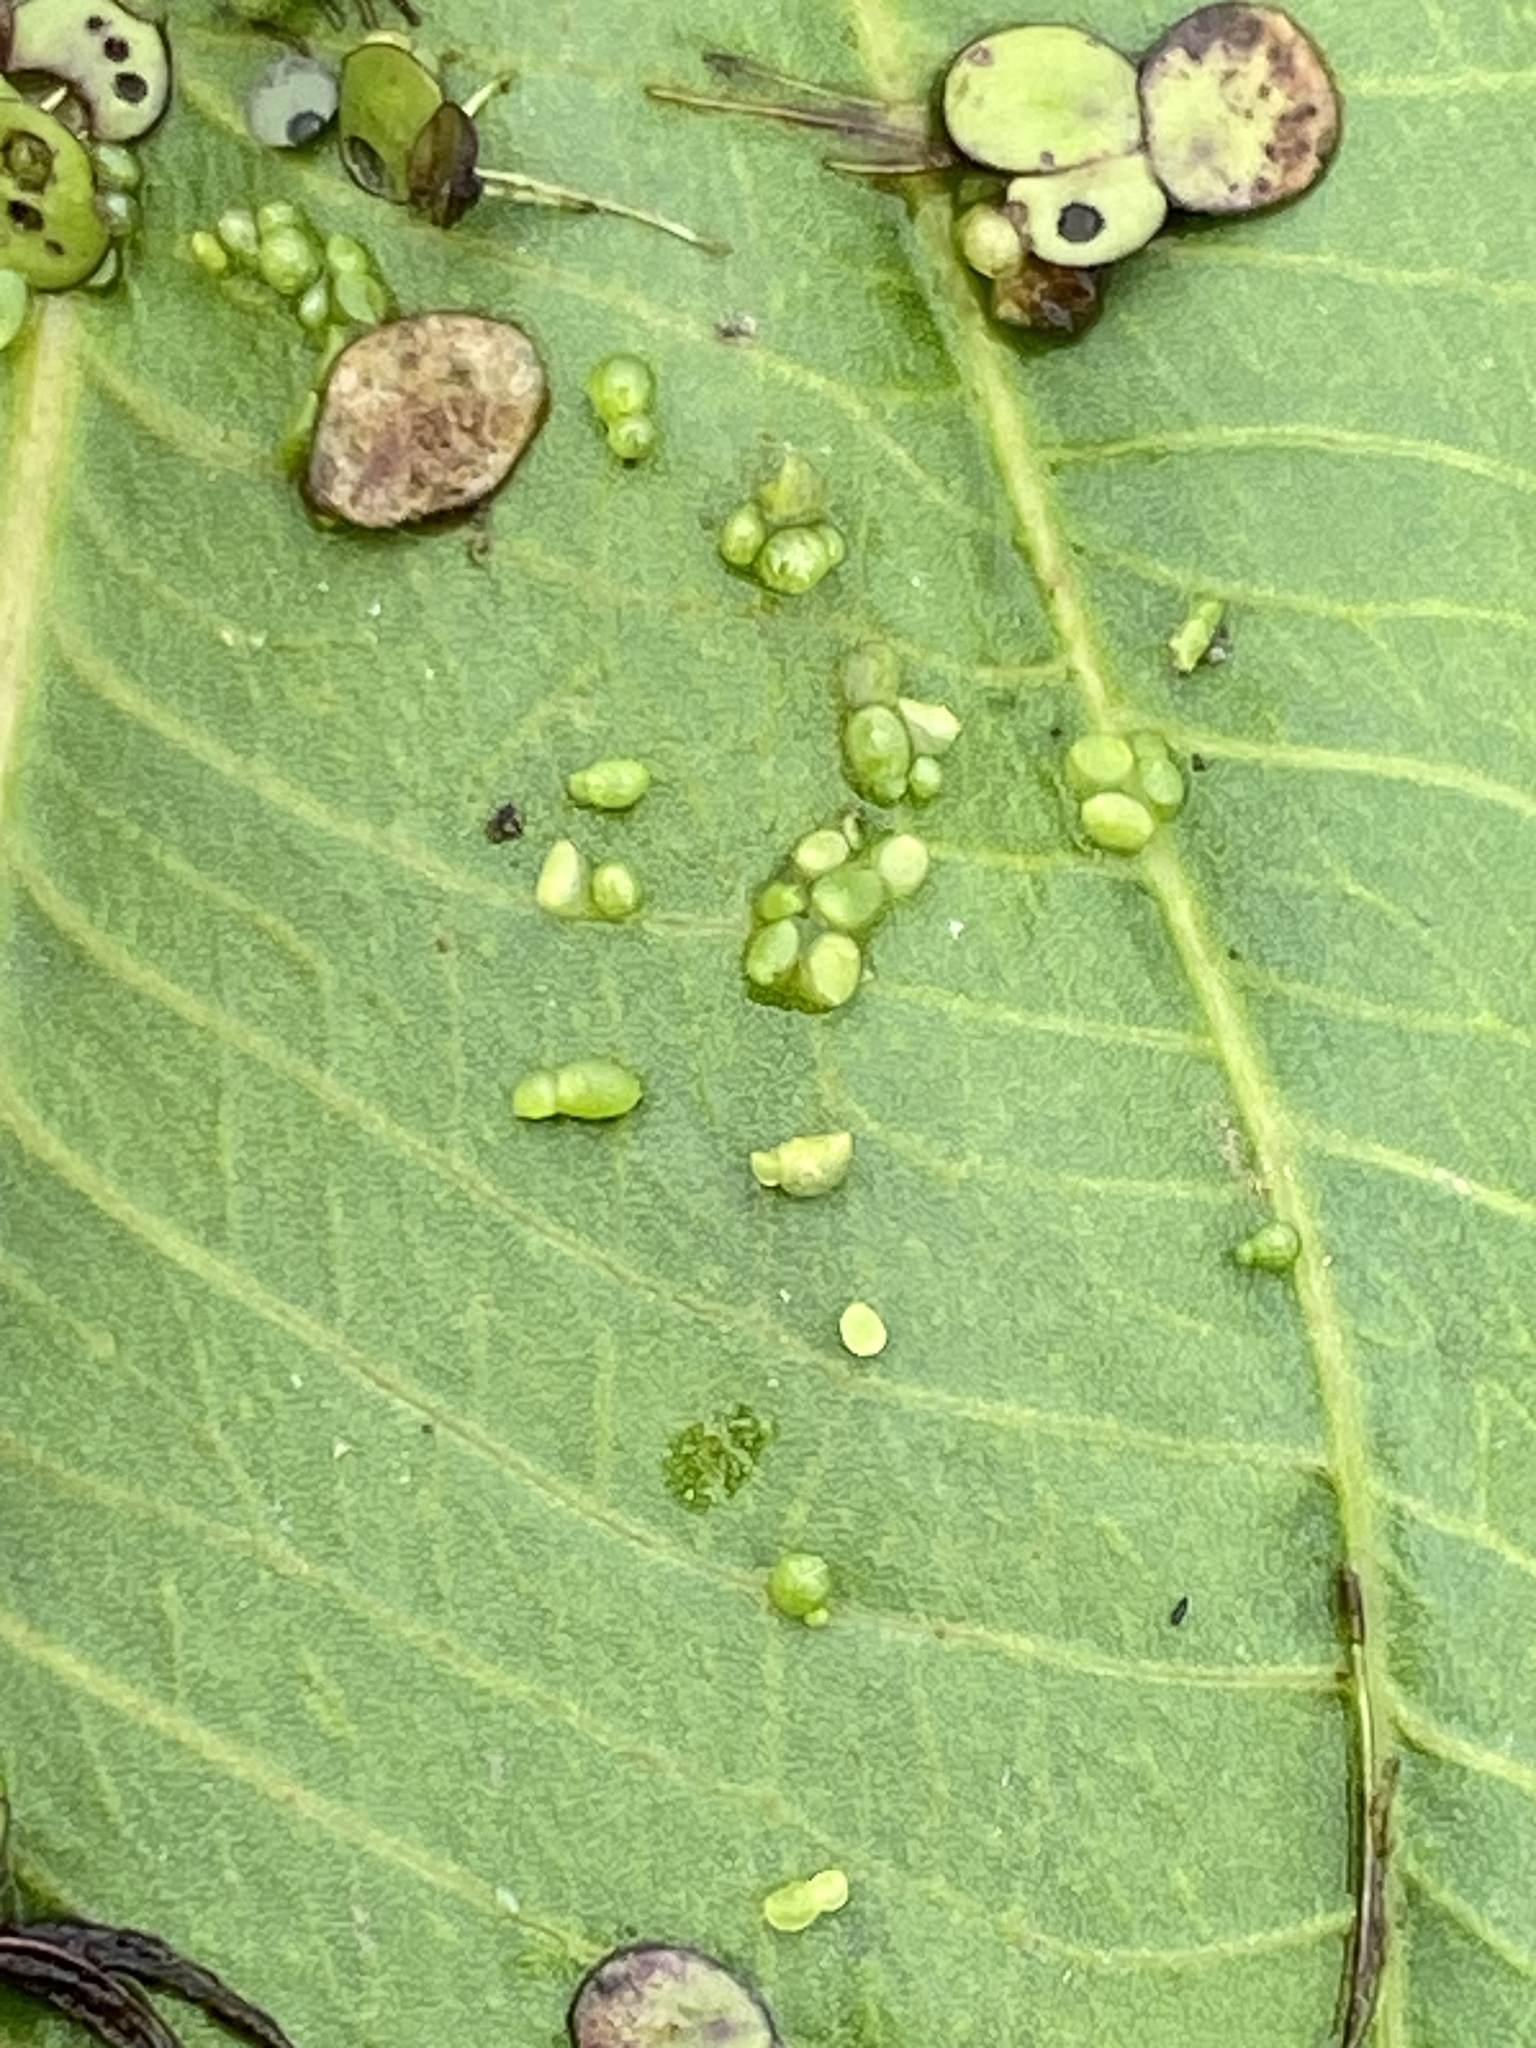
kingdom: Plantae
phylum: Tracheophyta
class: Liliopsida
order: Alismatales
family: Araceae
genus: Wolffia
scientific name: Wolffia columbiana
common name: Columbia watermeal
